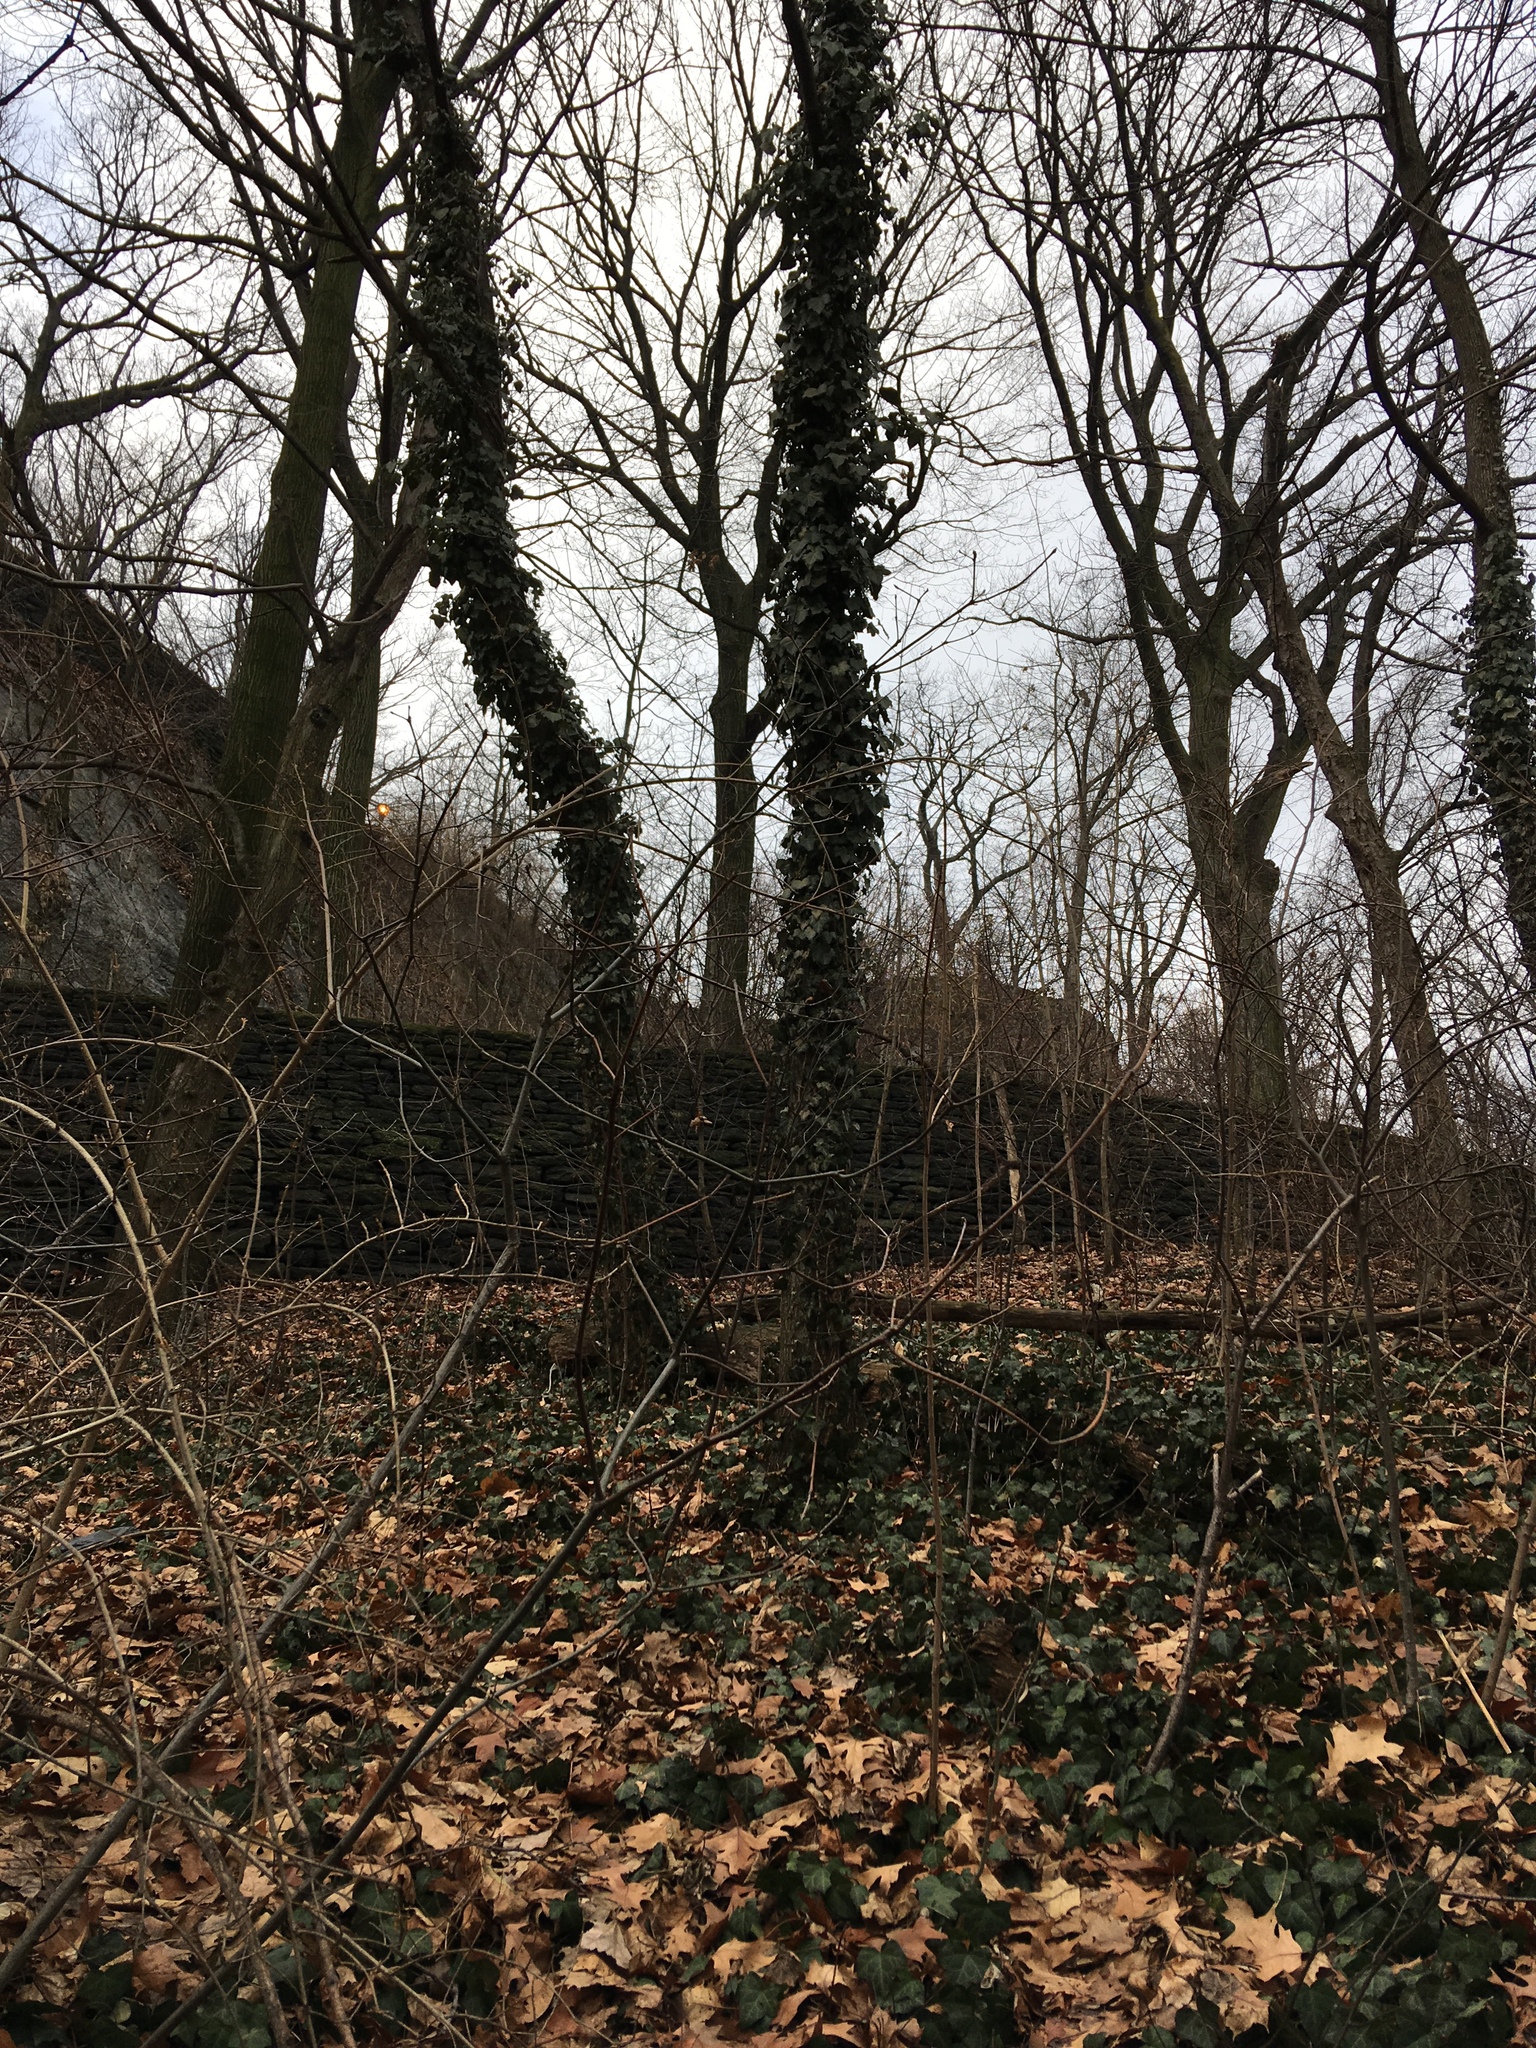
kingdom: Plantae
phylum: Tracheophyta
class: Magnoliopsida
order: Apiales
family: Araliaceae
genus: Hedera
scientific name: Hedera helix
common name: Ivy
